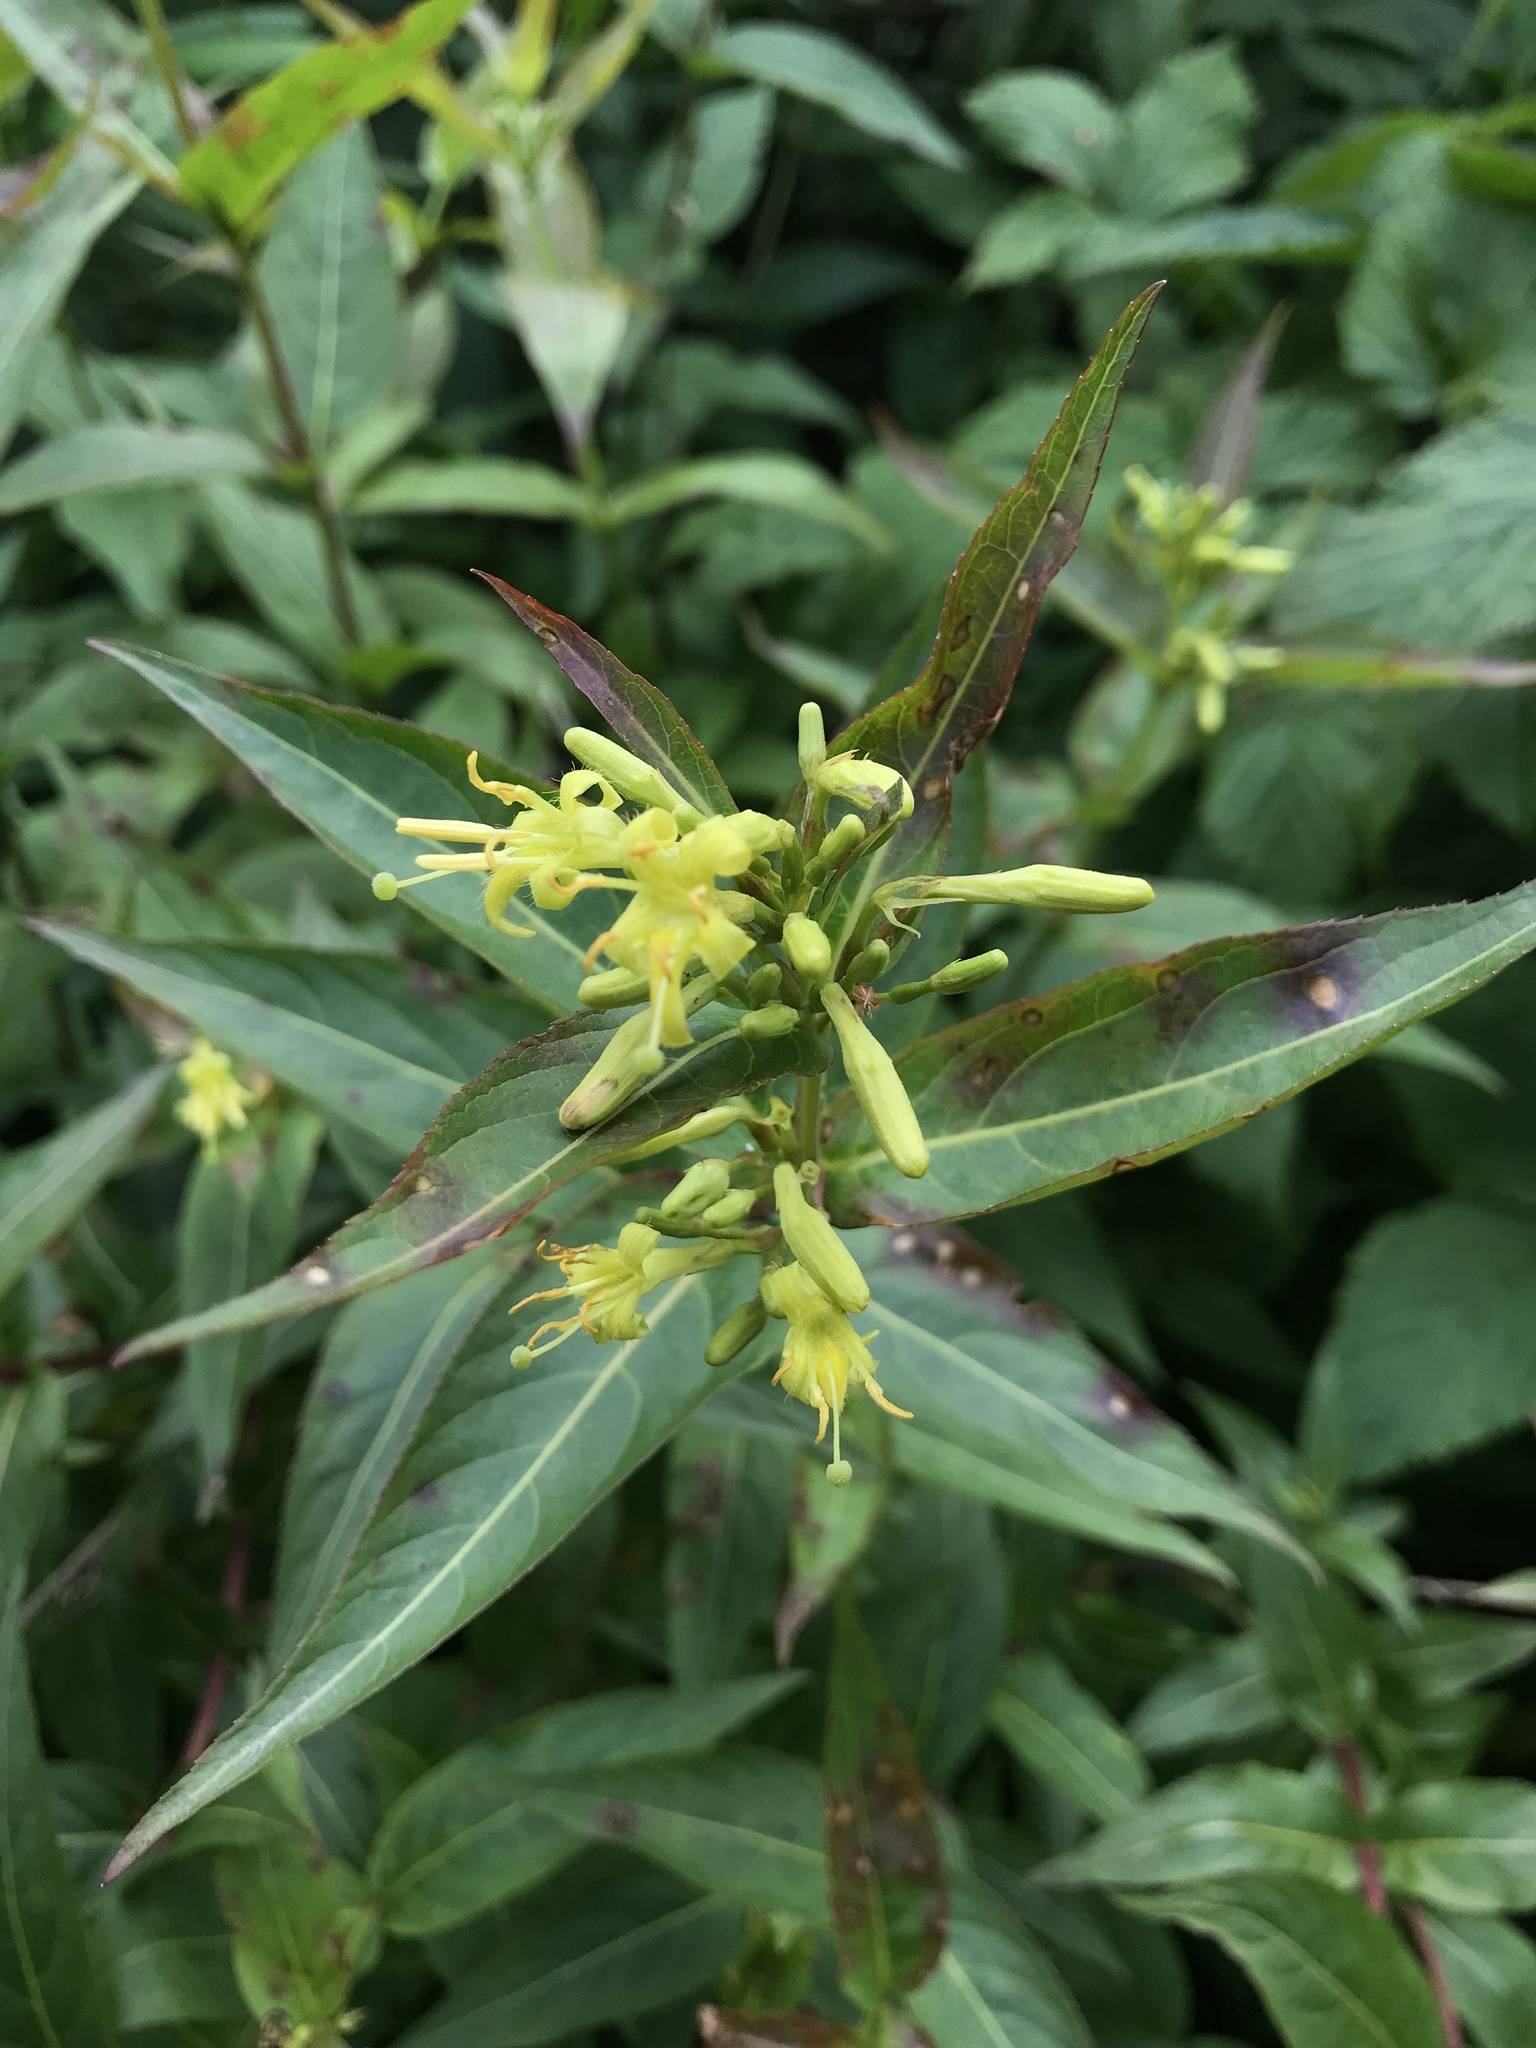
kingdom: Plantae
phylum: Tracheophyta
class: Magnoliopsida
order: Dipsacales
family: Caprifoliaceae
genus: Diervilla
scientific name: Diervilla sessilifolia
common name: Bush-honeysuckle
